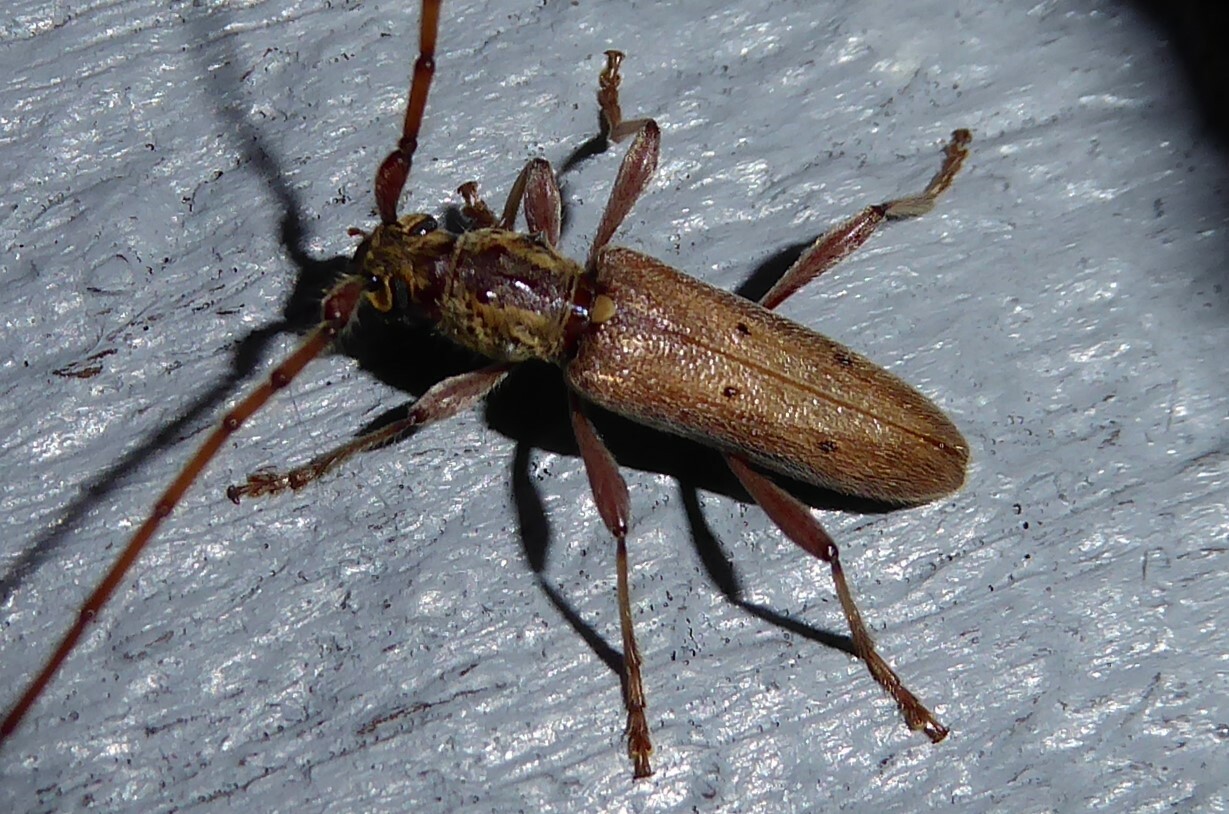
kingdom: Animalia
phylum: Arthropoda
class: Insecta
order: Coleoptera
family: Cerambycidae
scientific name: Cerambycidae
